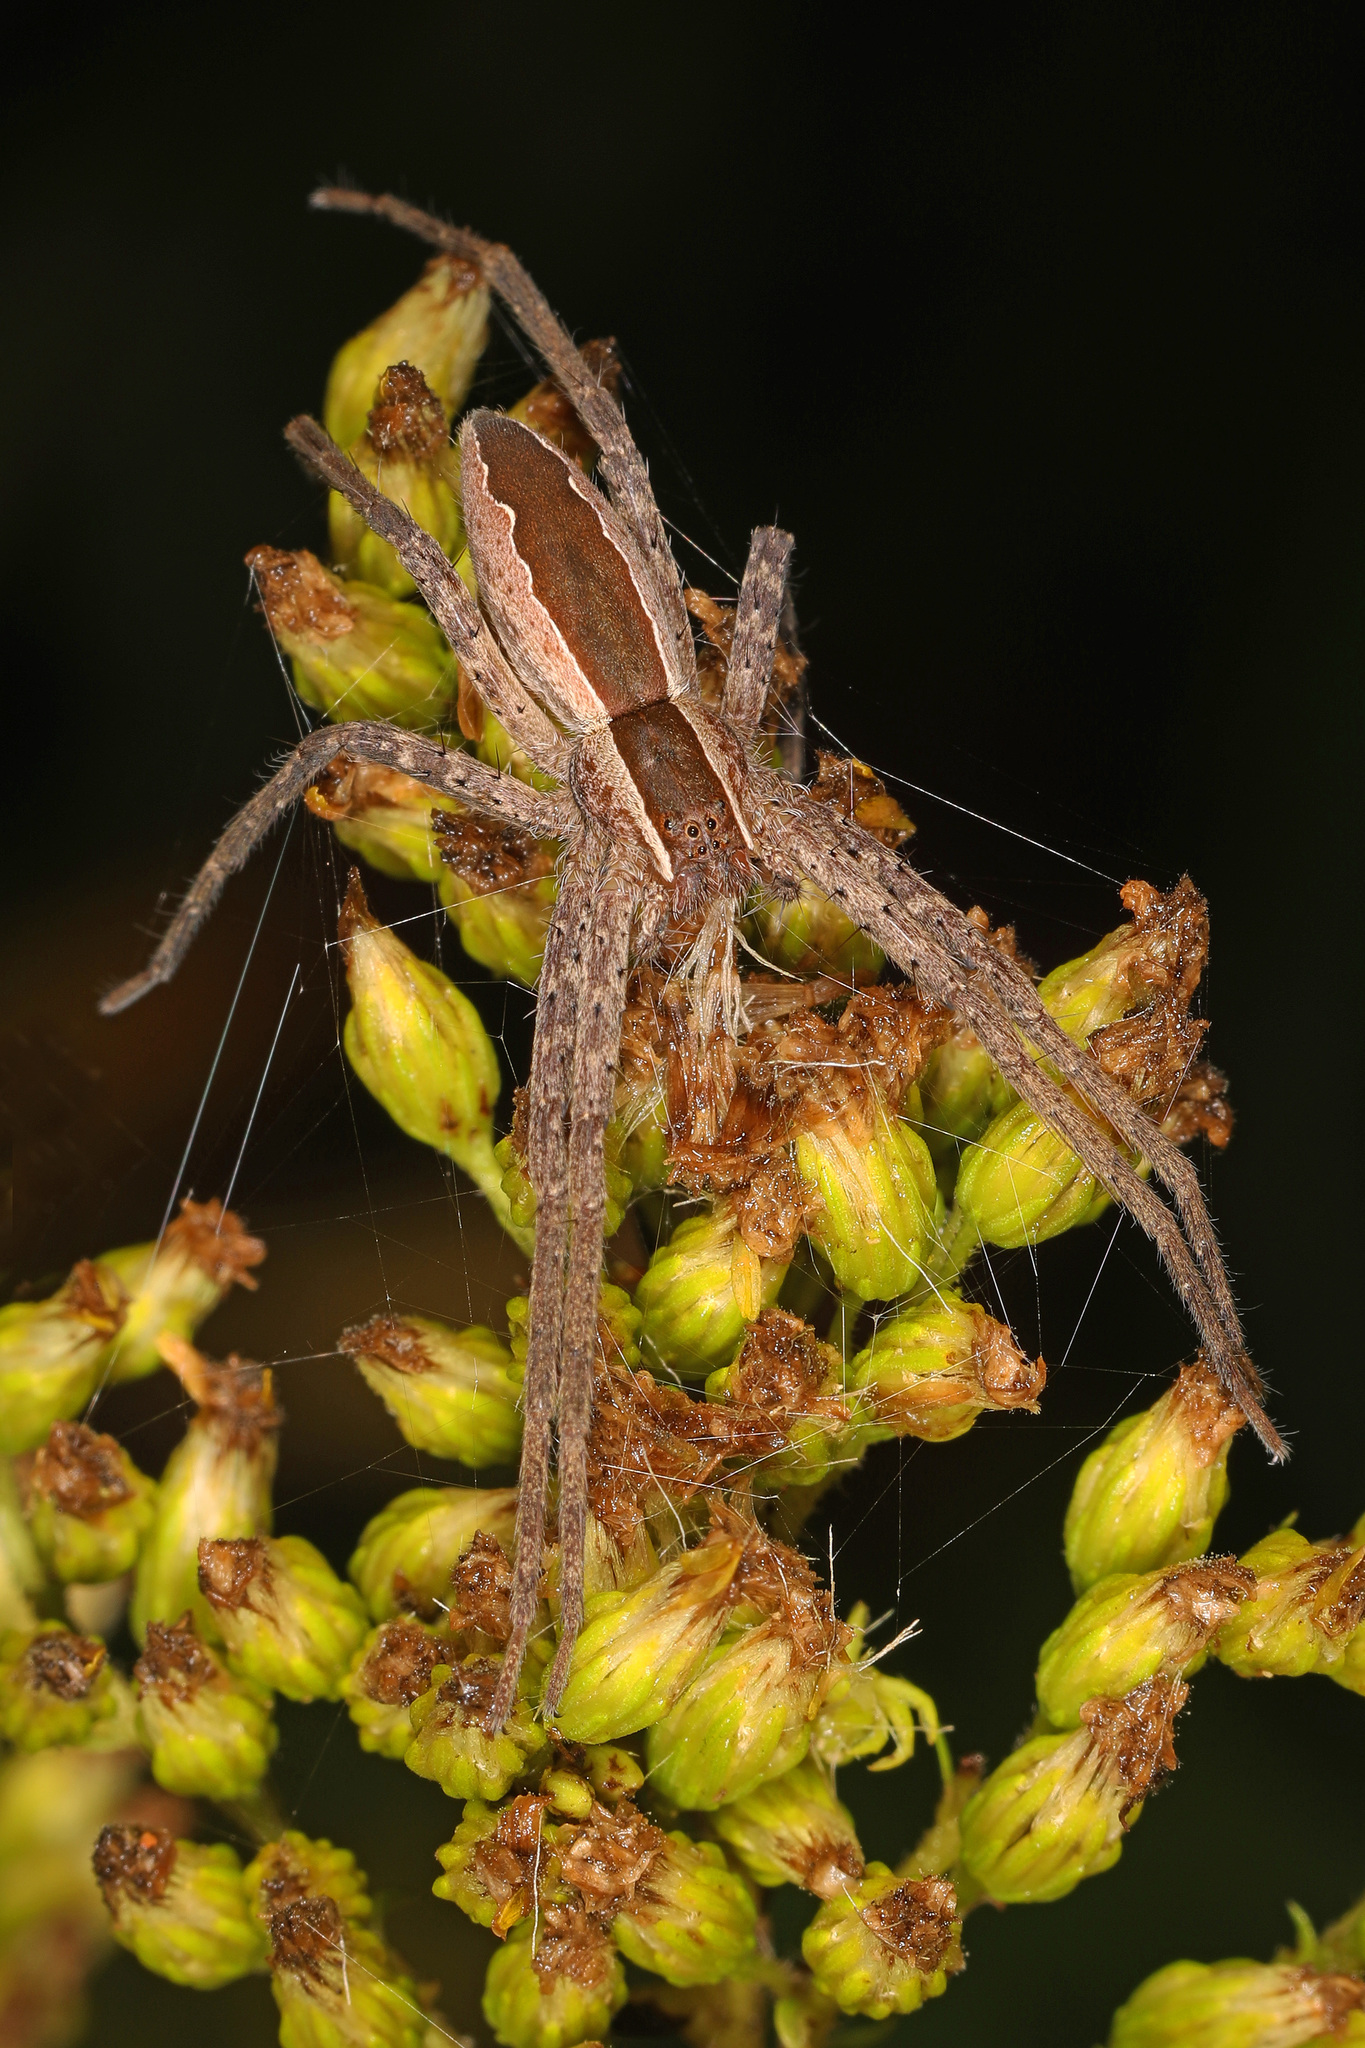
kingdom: Animalia
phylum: Arthropoda
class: Arachnida
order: Araneae
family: Pisauridae
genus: Pisaurina
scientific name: Pisaurina mira
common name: American nursery web spider
